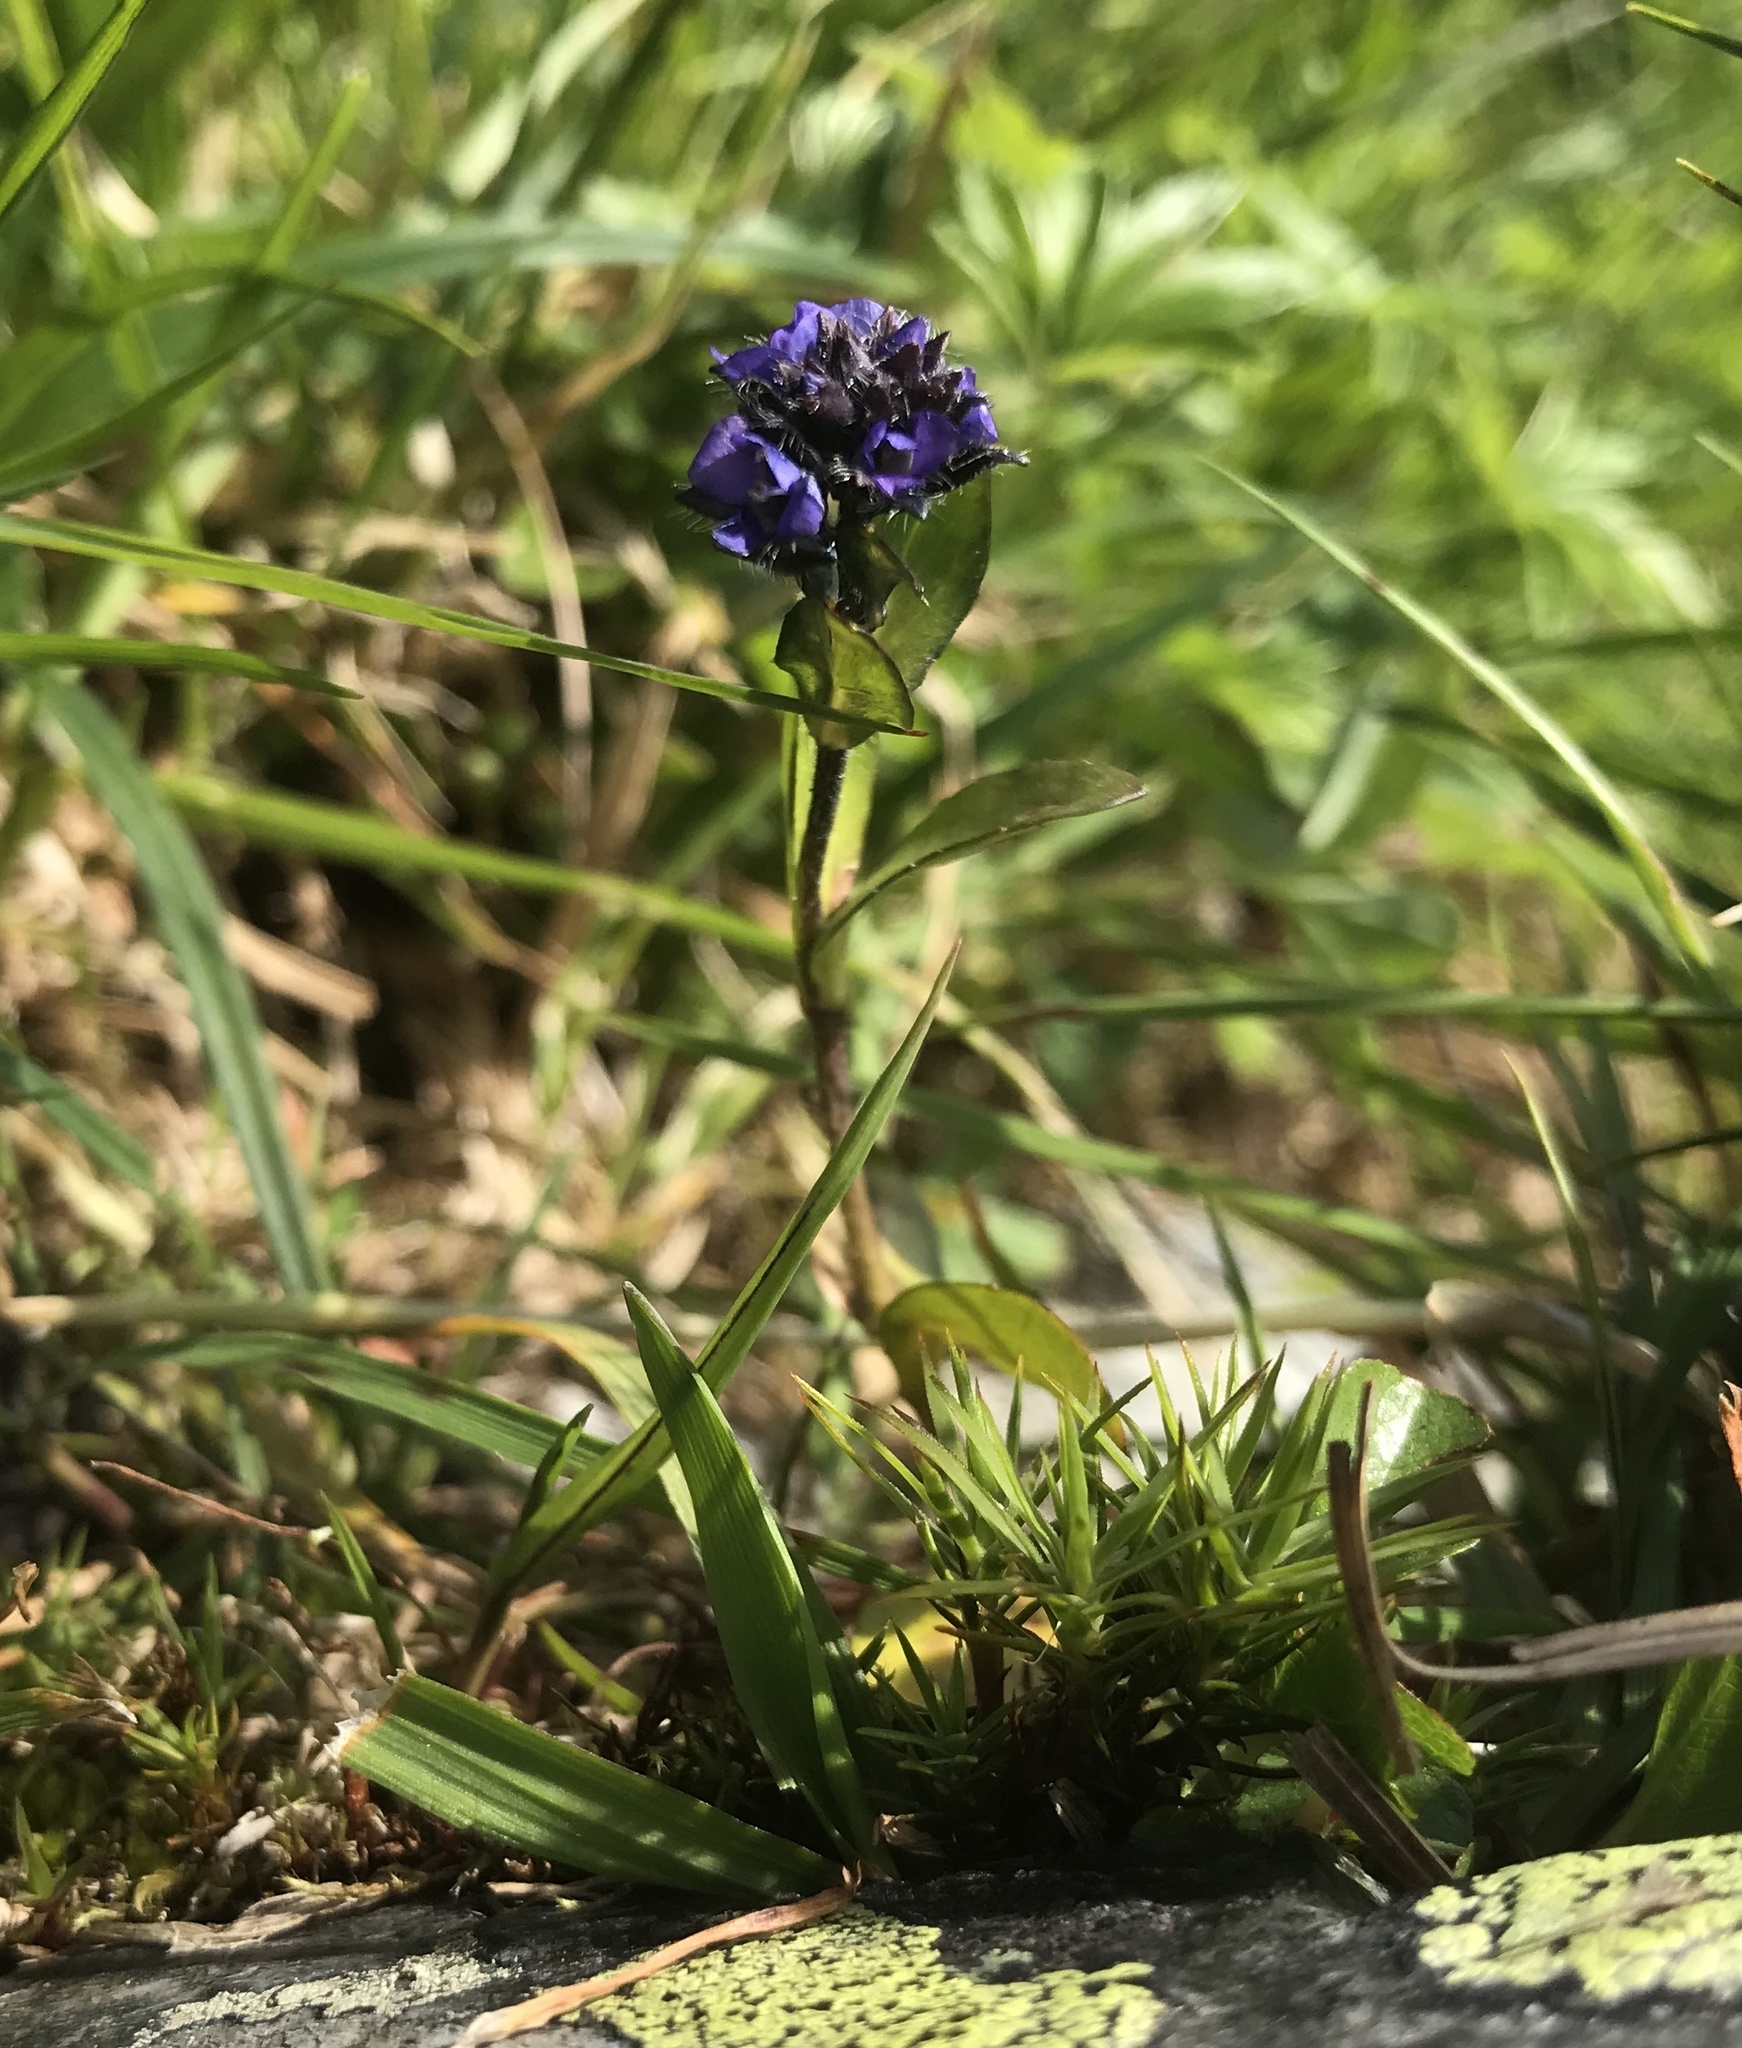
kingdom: Plantae
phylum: Tracheophyta
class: Magnoliopsida
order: Lamiales
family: Plantaginaceae
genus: Veronica
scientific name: Veronica alpina
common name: Alpine speedwell
